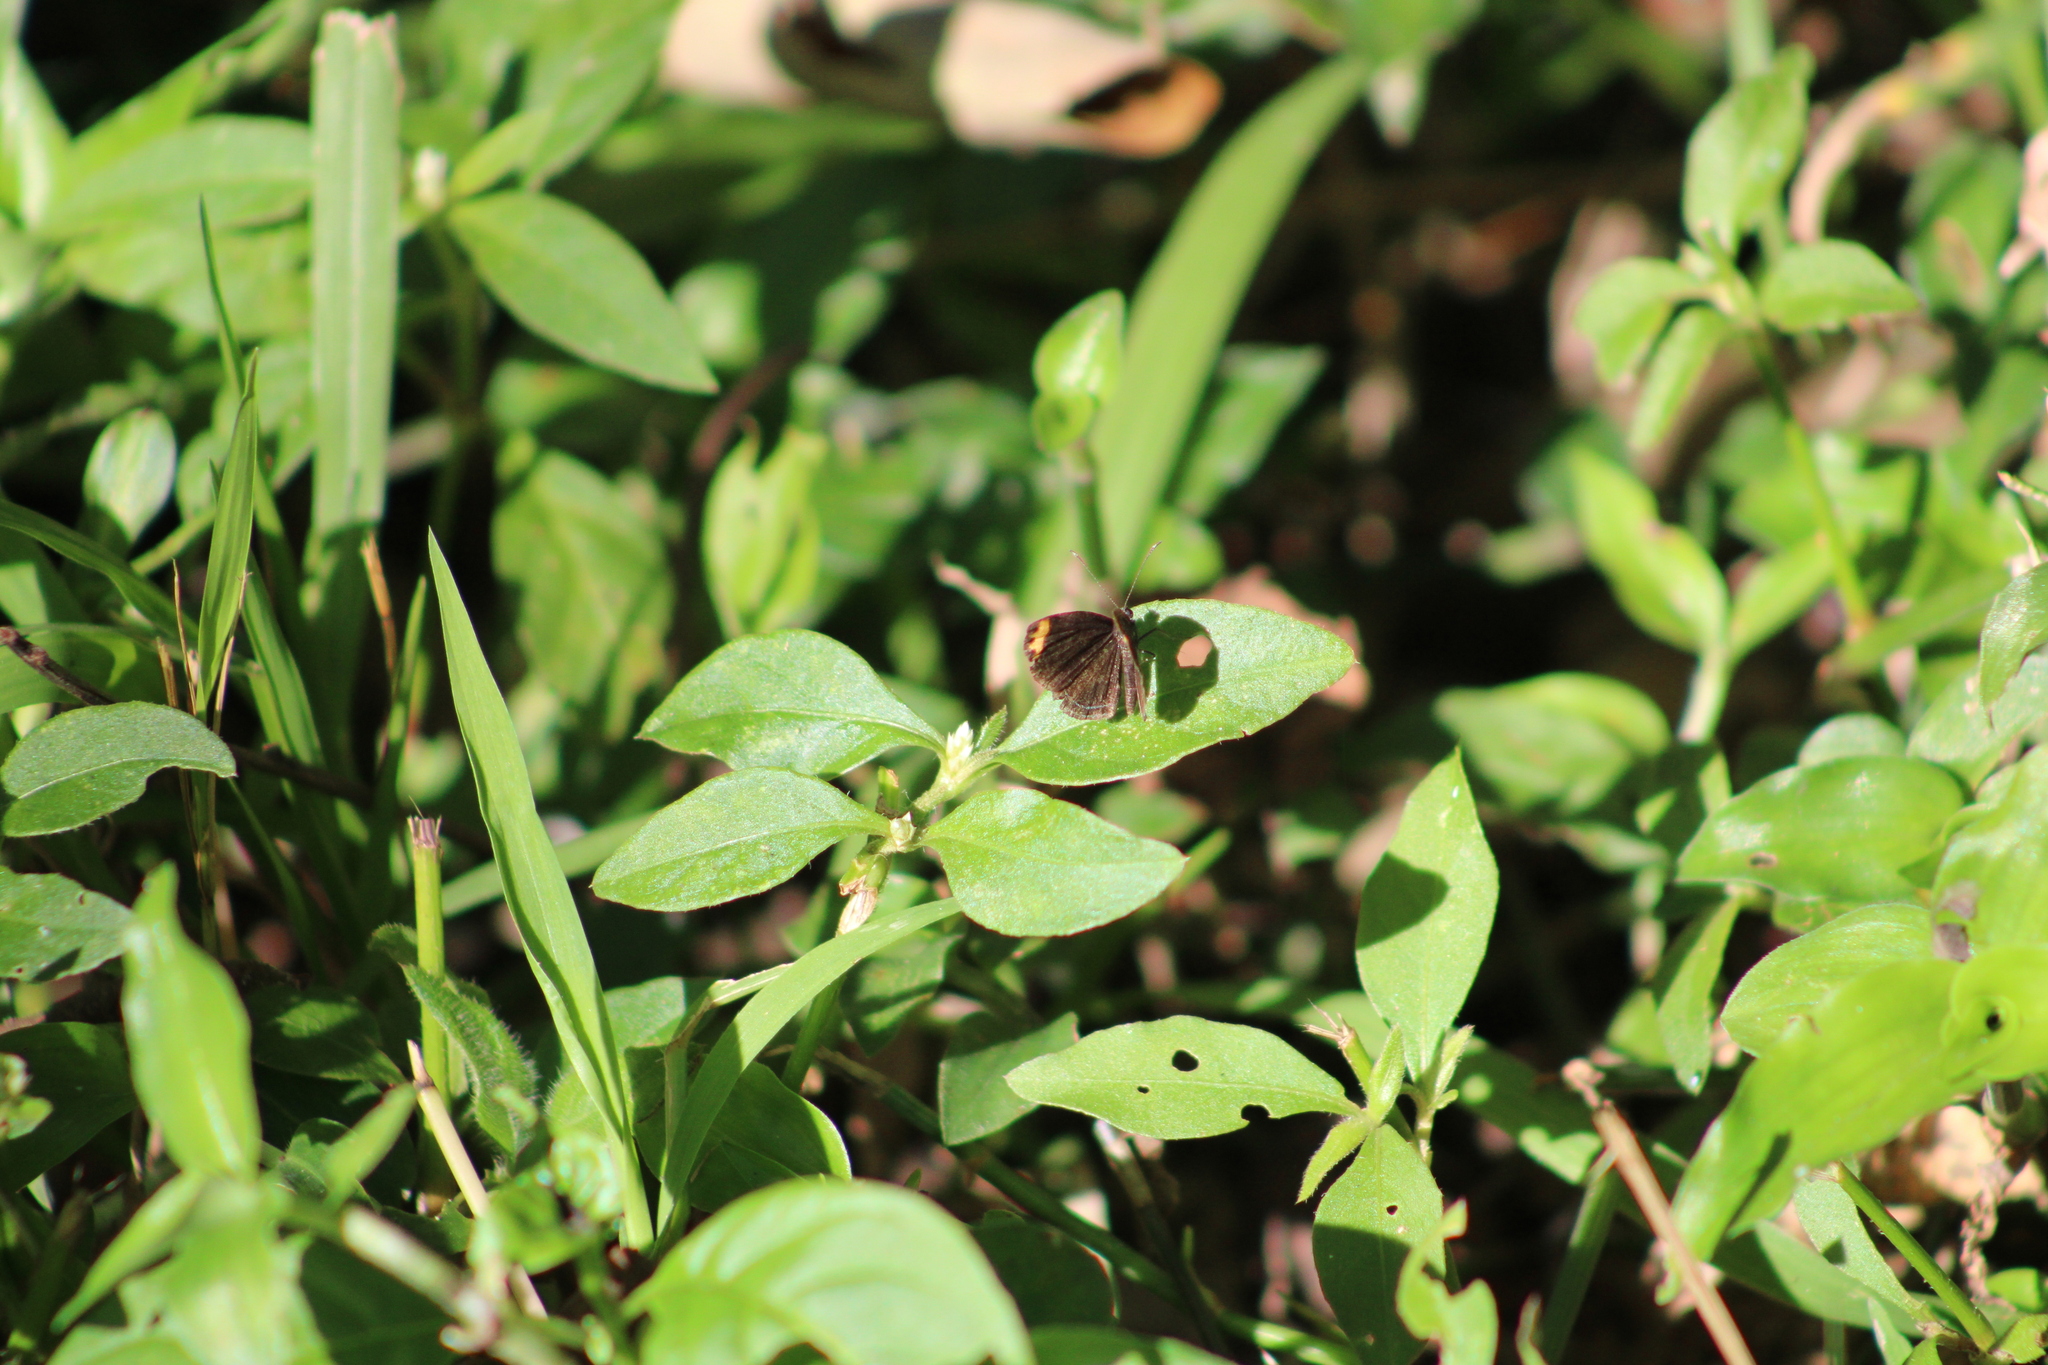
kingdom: Animalia
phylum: Arthropoda
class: Insecta
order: Lepidoptera
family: Riodinidae
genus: Nelone
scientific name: Nelone cadmeis
